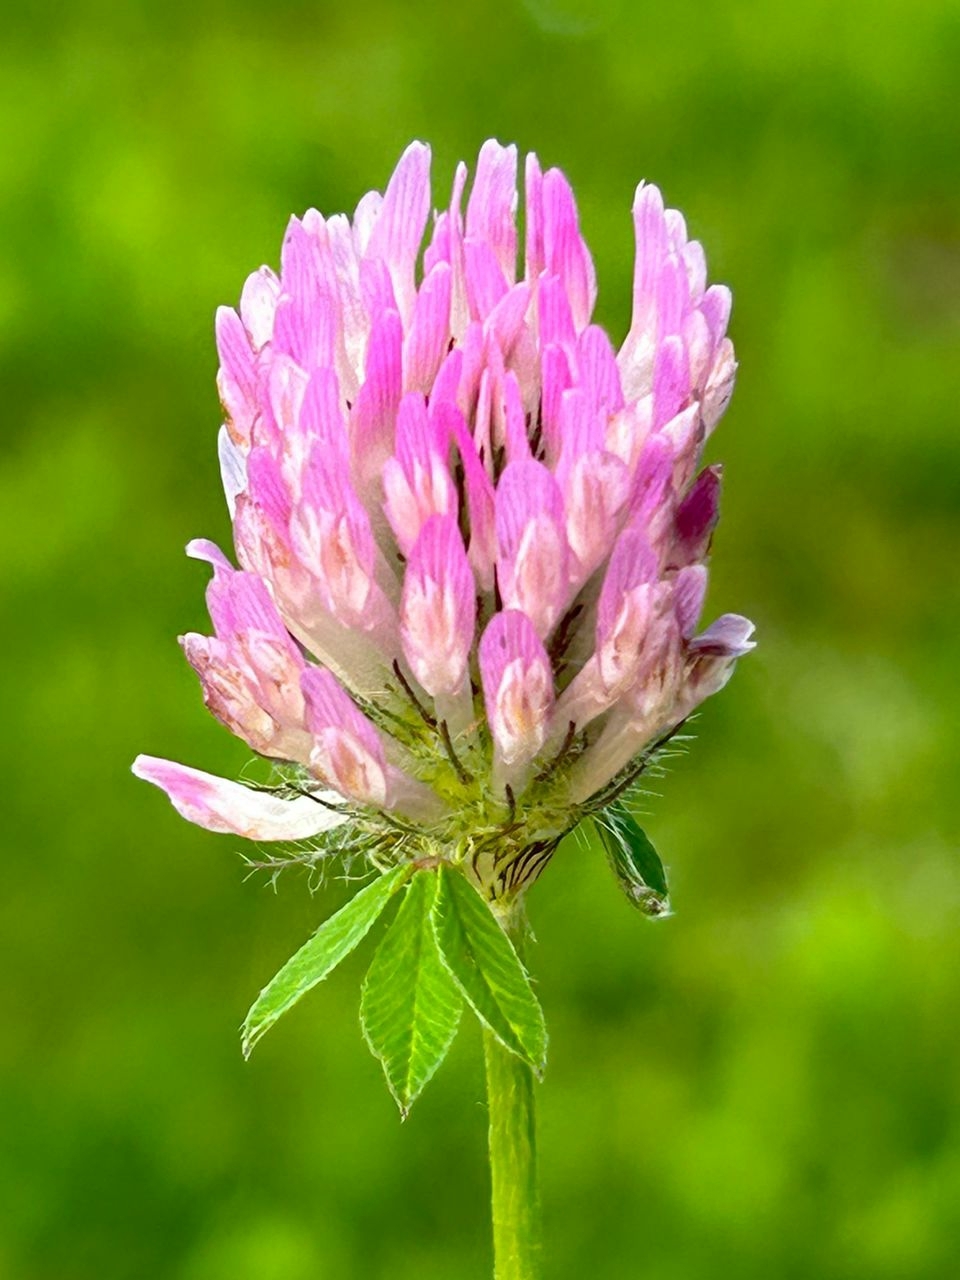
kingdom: Plantae
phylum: Tracheophyta
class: Magnoliopsida
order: Fabales
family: Fabaceae
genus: Trifolium
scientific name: Trifolium pratense
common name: Red clover
